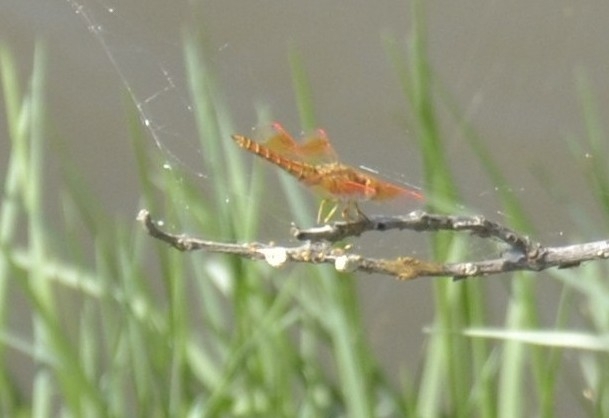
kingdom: Animalia
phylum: Arthropoda
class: Insecta
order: Odonata
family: Libellulidae
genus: Brachythemis
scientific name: Brachythemis contaminata
